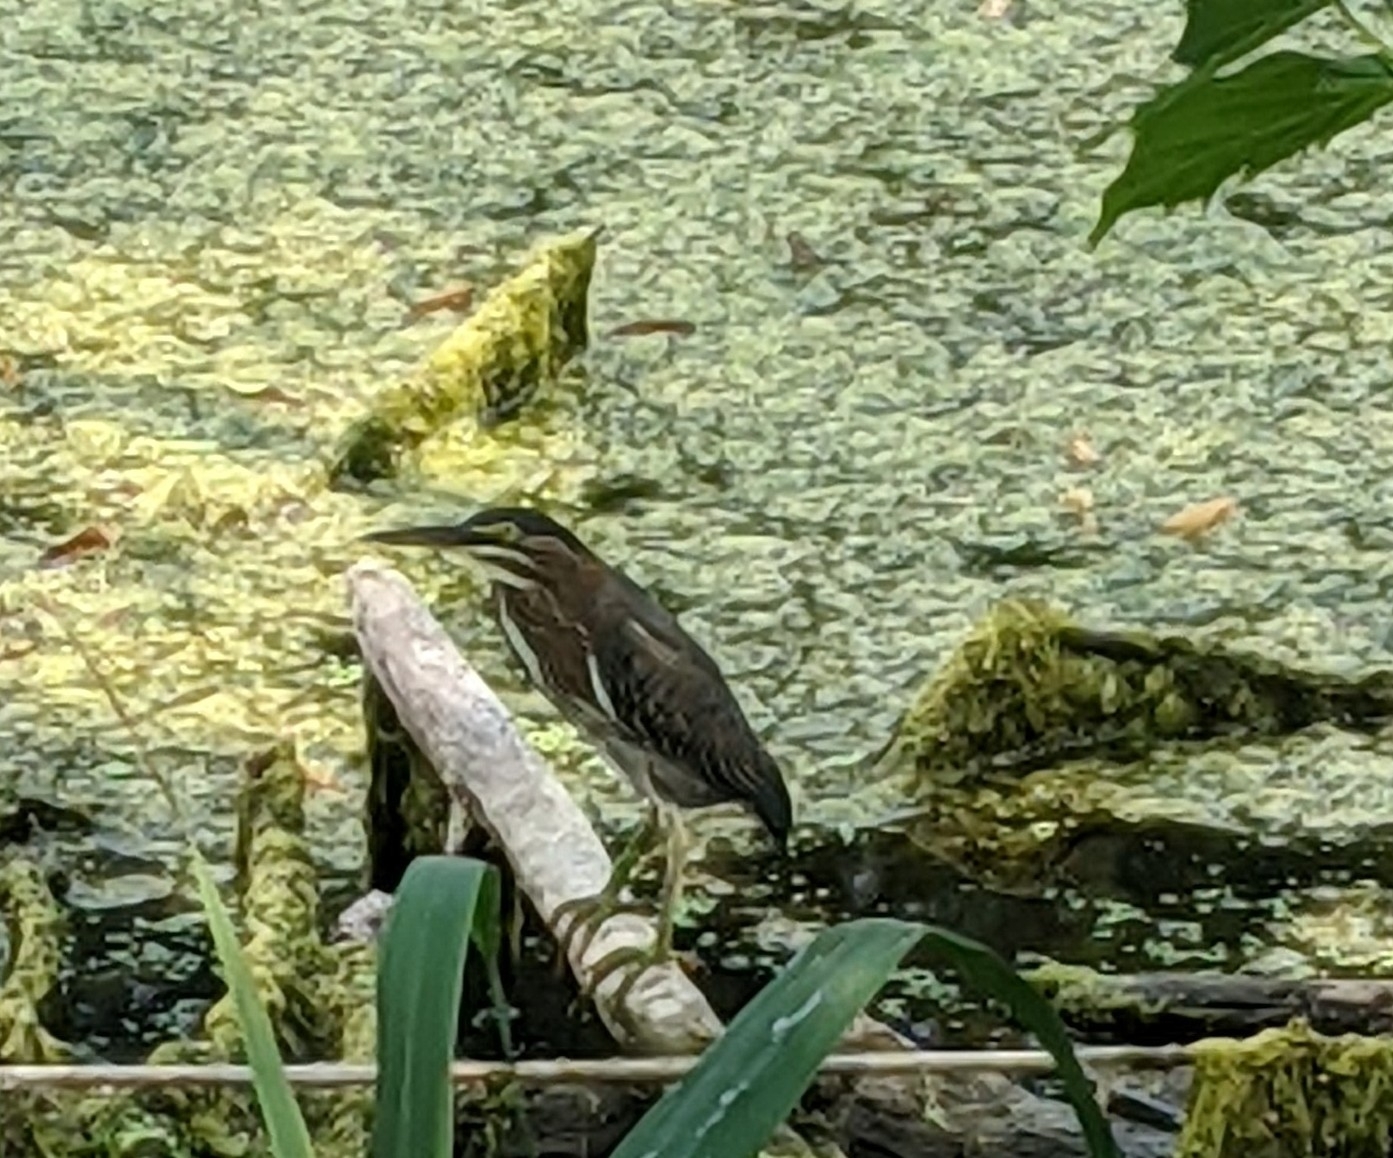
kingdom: Animalia
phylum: Chordata
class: Aves
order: Pelecaniformes
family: Ardeidae
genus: Butorides
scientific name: Butorides virescens
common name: Green heron
